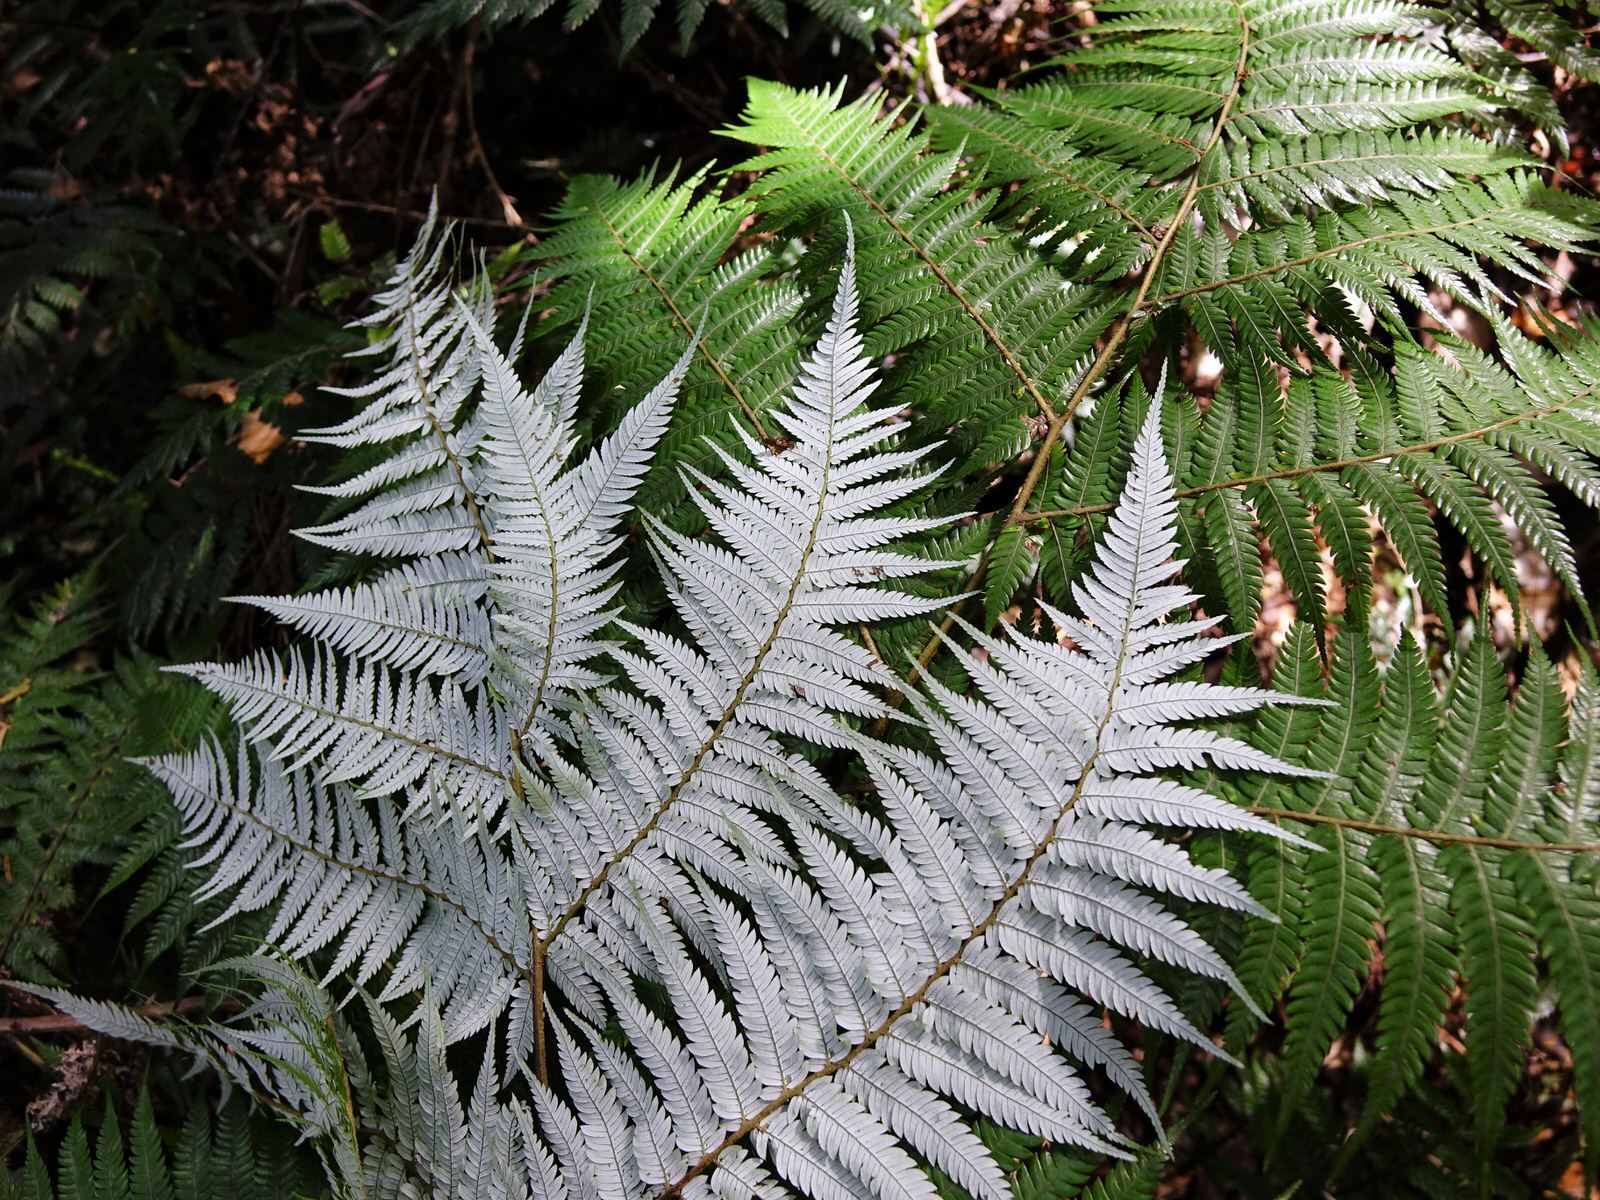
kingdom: Plantae
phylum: Tracheophyta
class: Polypodiopsida
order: Cyatheales
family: Cyatheaceae
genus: Alsophila
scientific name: Alsophila dealbata
